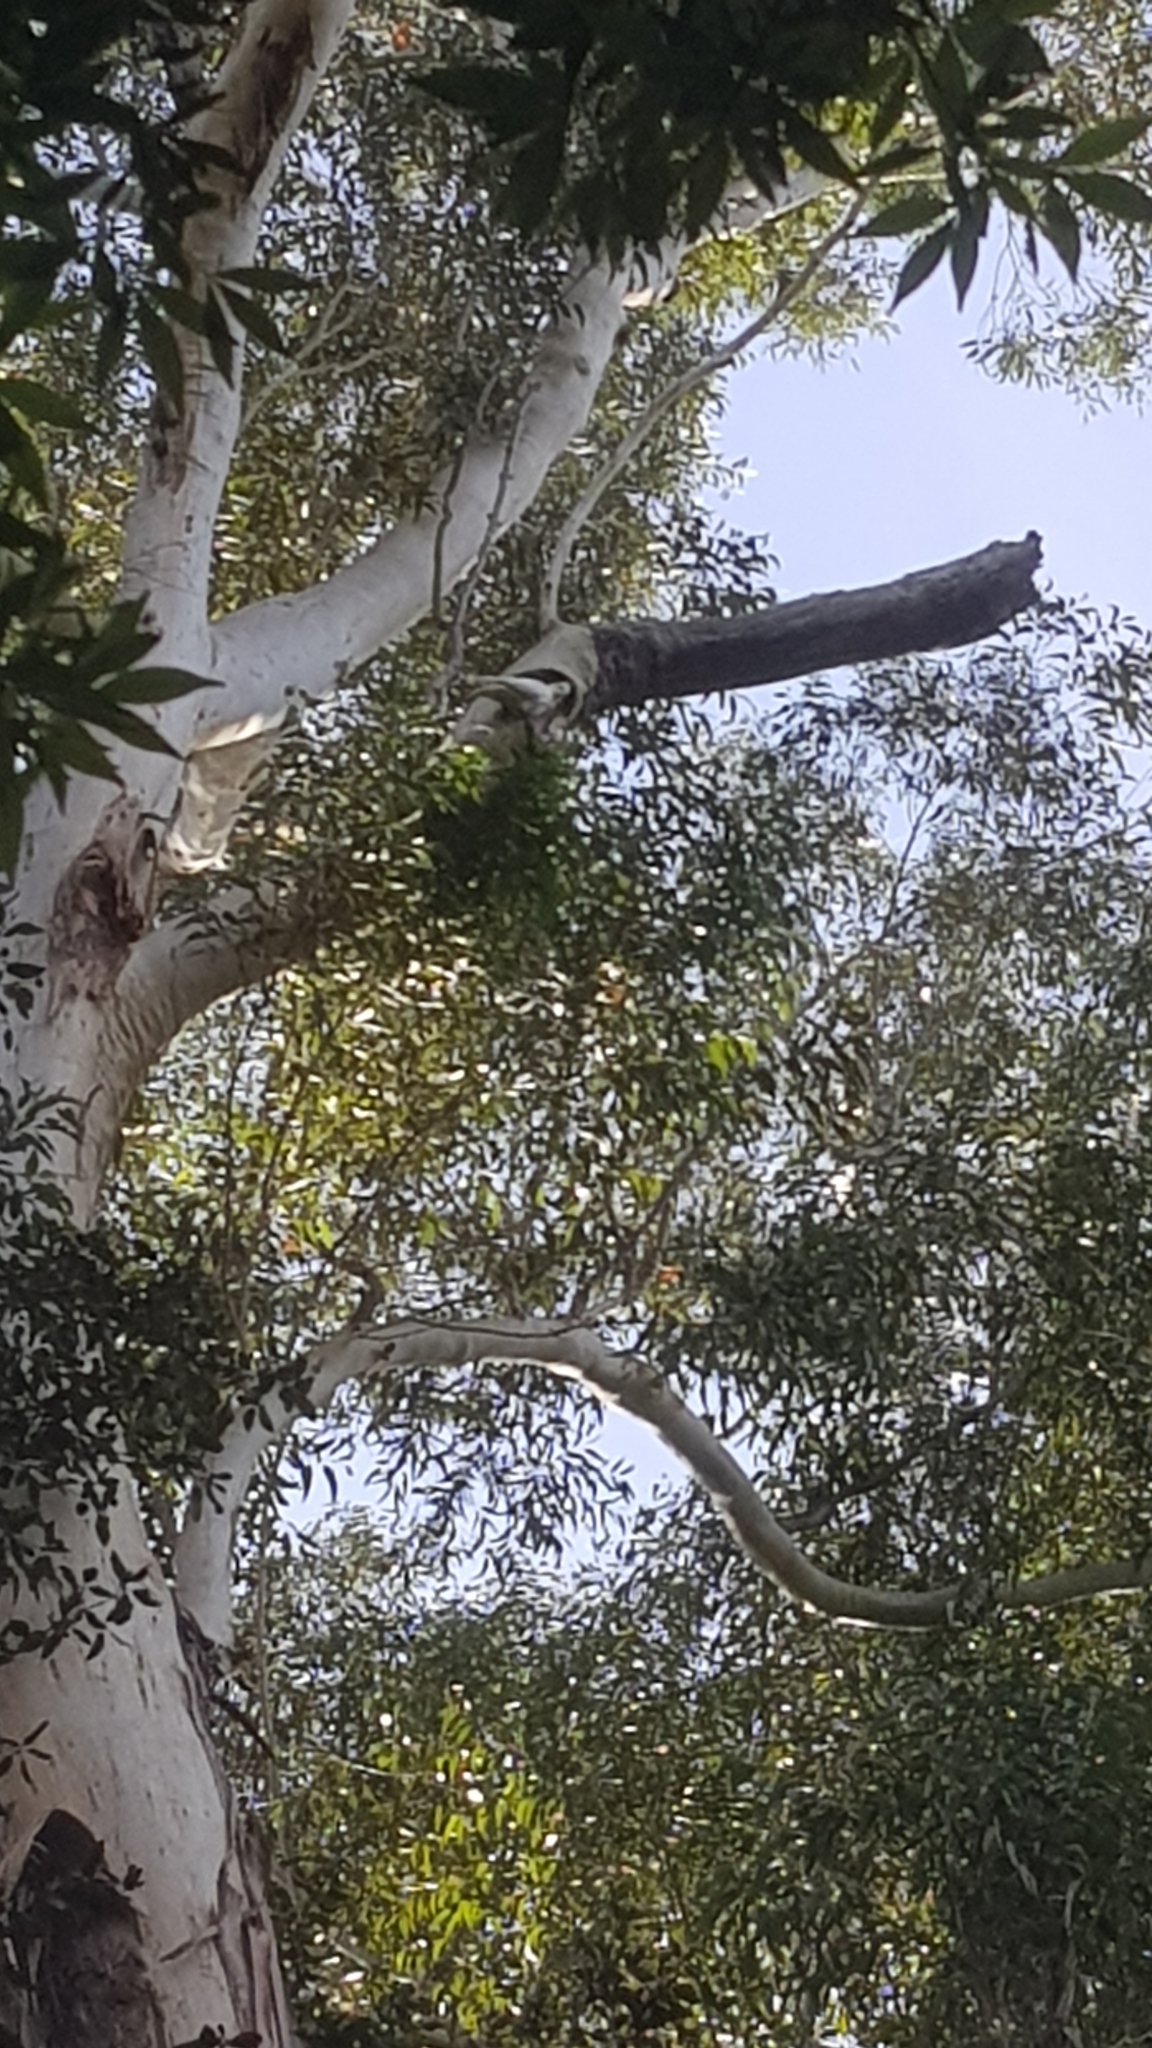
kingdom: Animalia
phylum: Chordata
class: Aves
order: Psittaciformes
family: Psittacidae
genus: Cacatua
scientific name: Cacatua sanguinea
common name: Little corella
